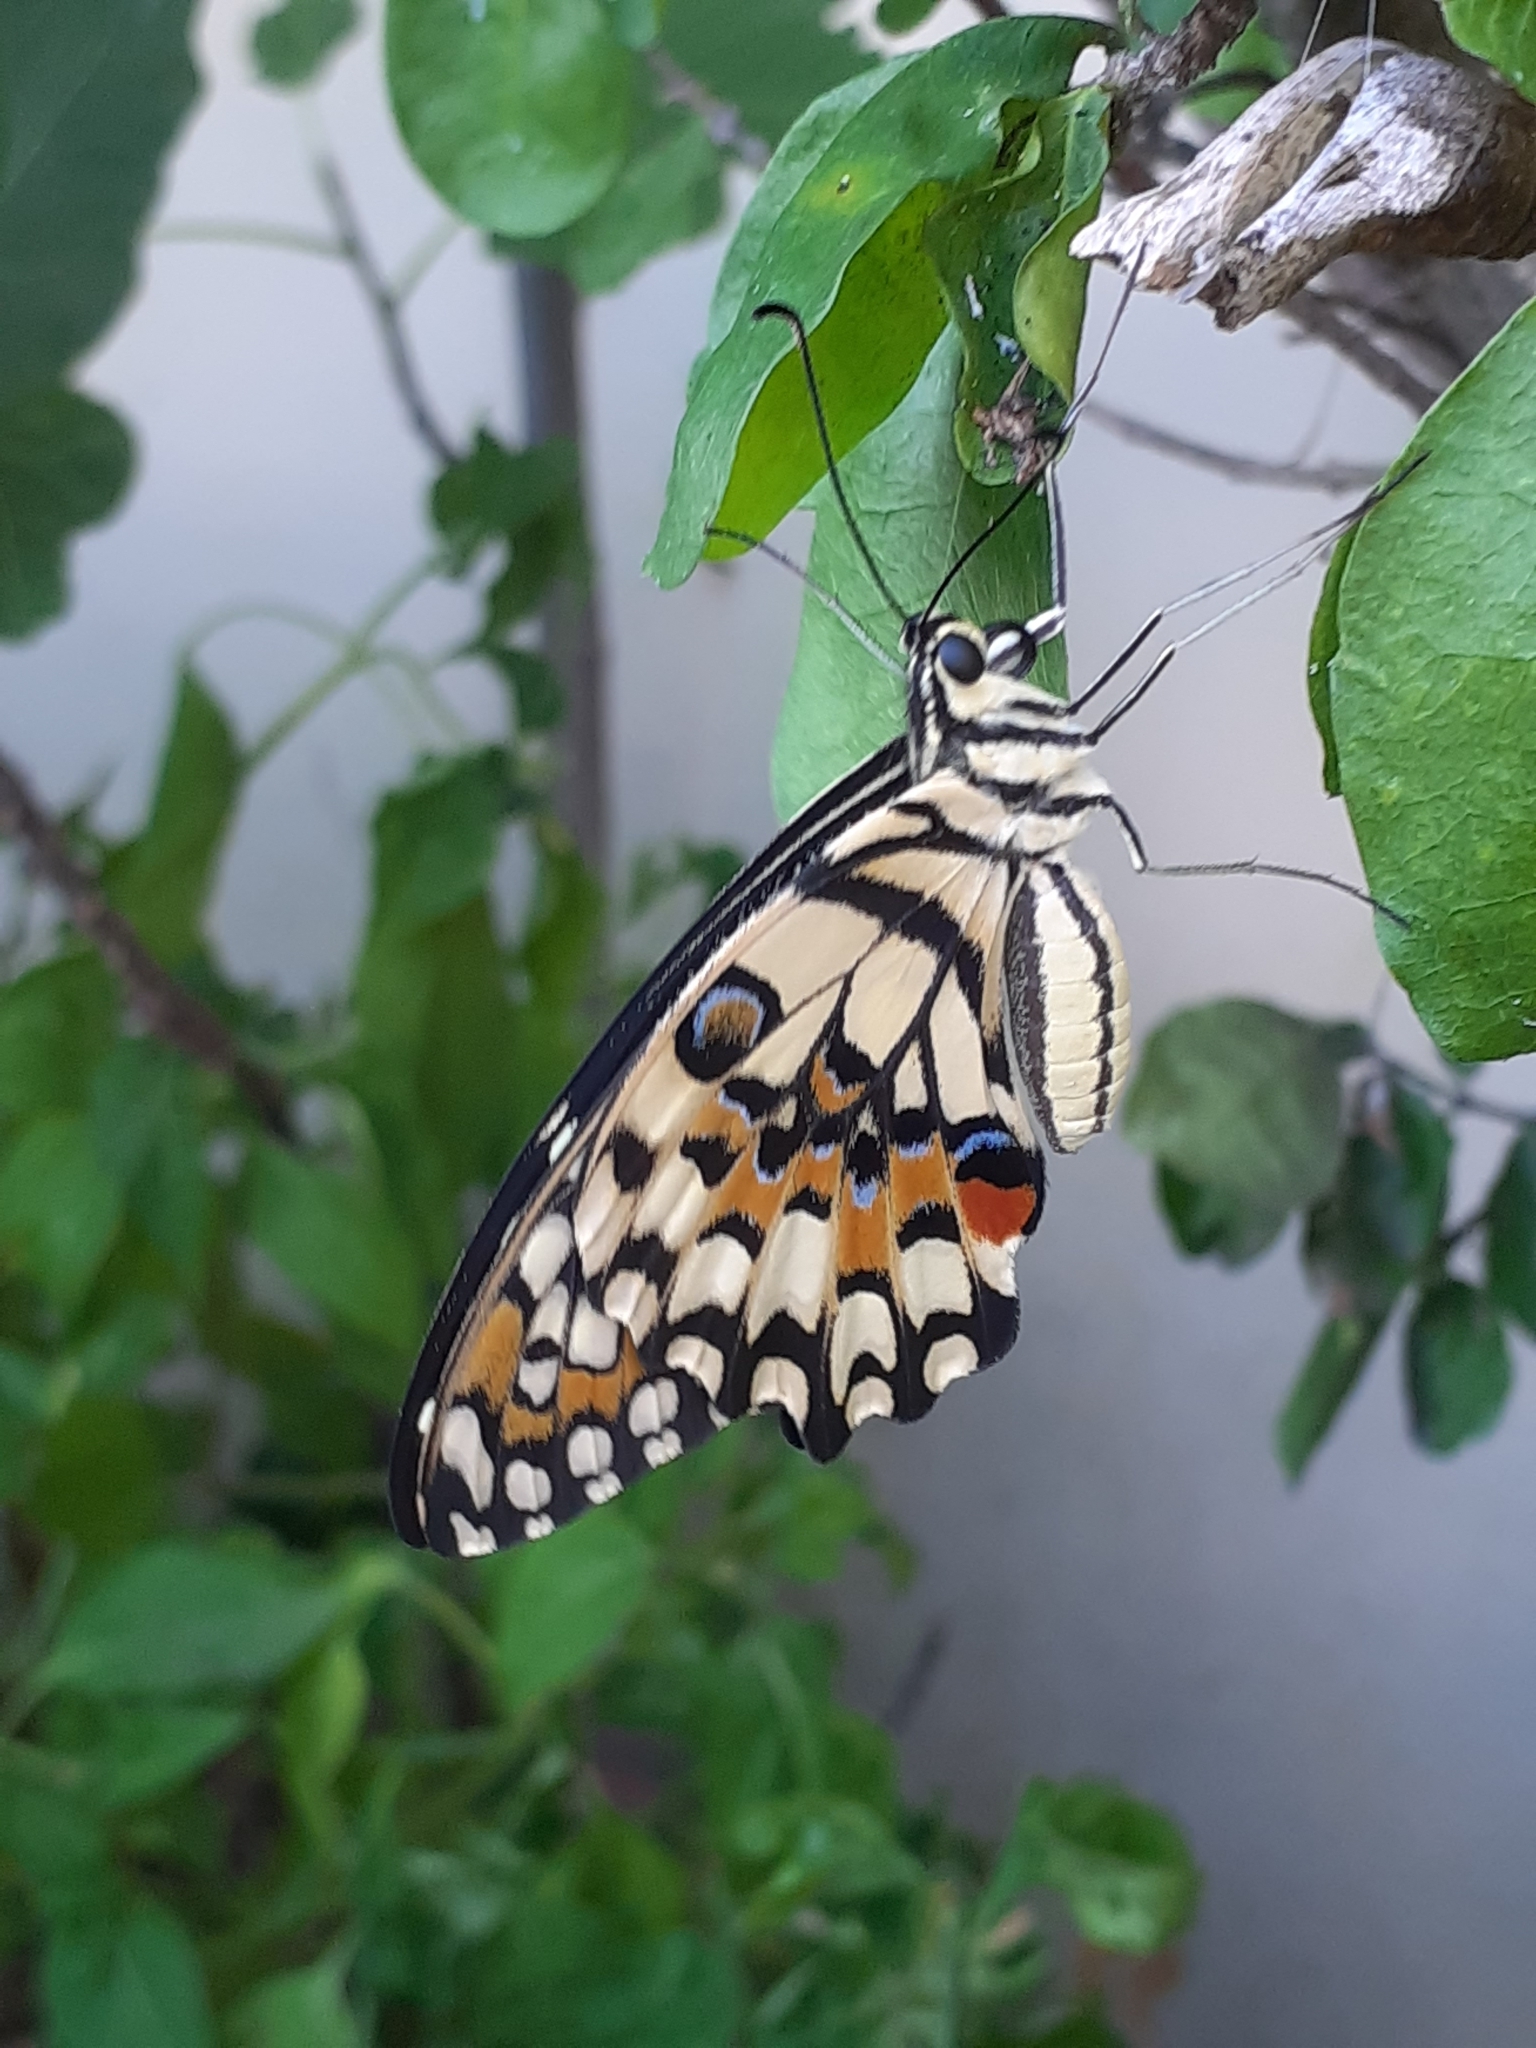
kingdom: Animalia
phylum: Arthropoda
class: Insecta
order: Lepidoptera
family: Papilionidae
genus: Papilio
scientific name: Papilio demoleus
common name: Lime butterfly
